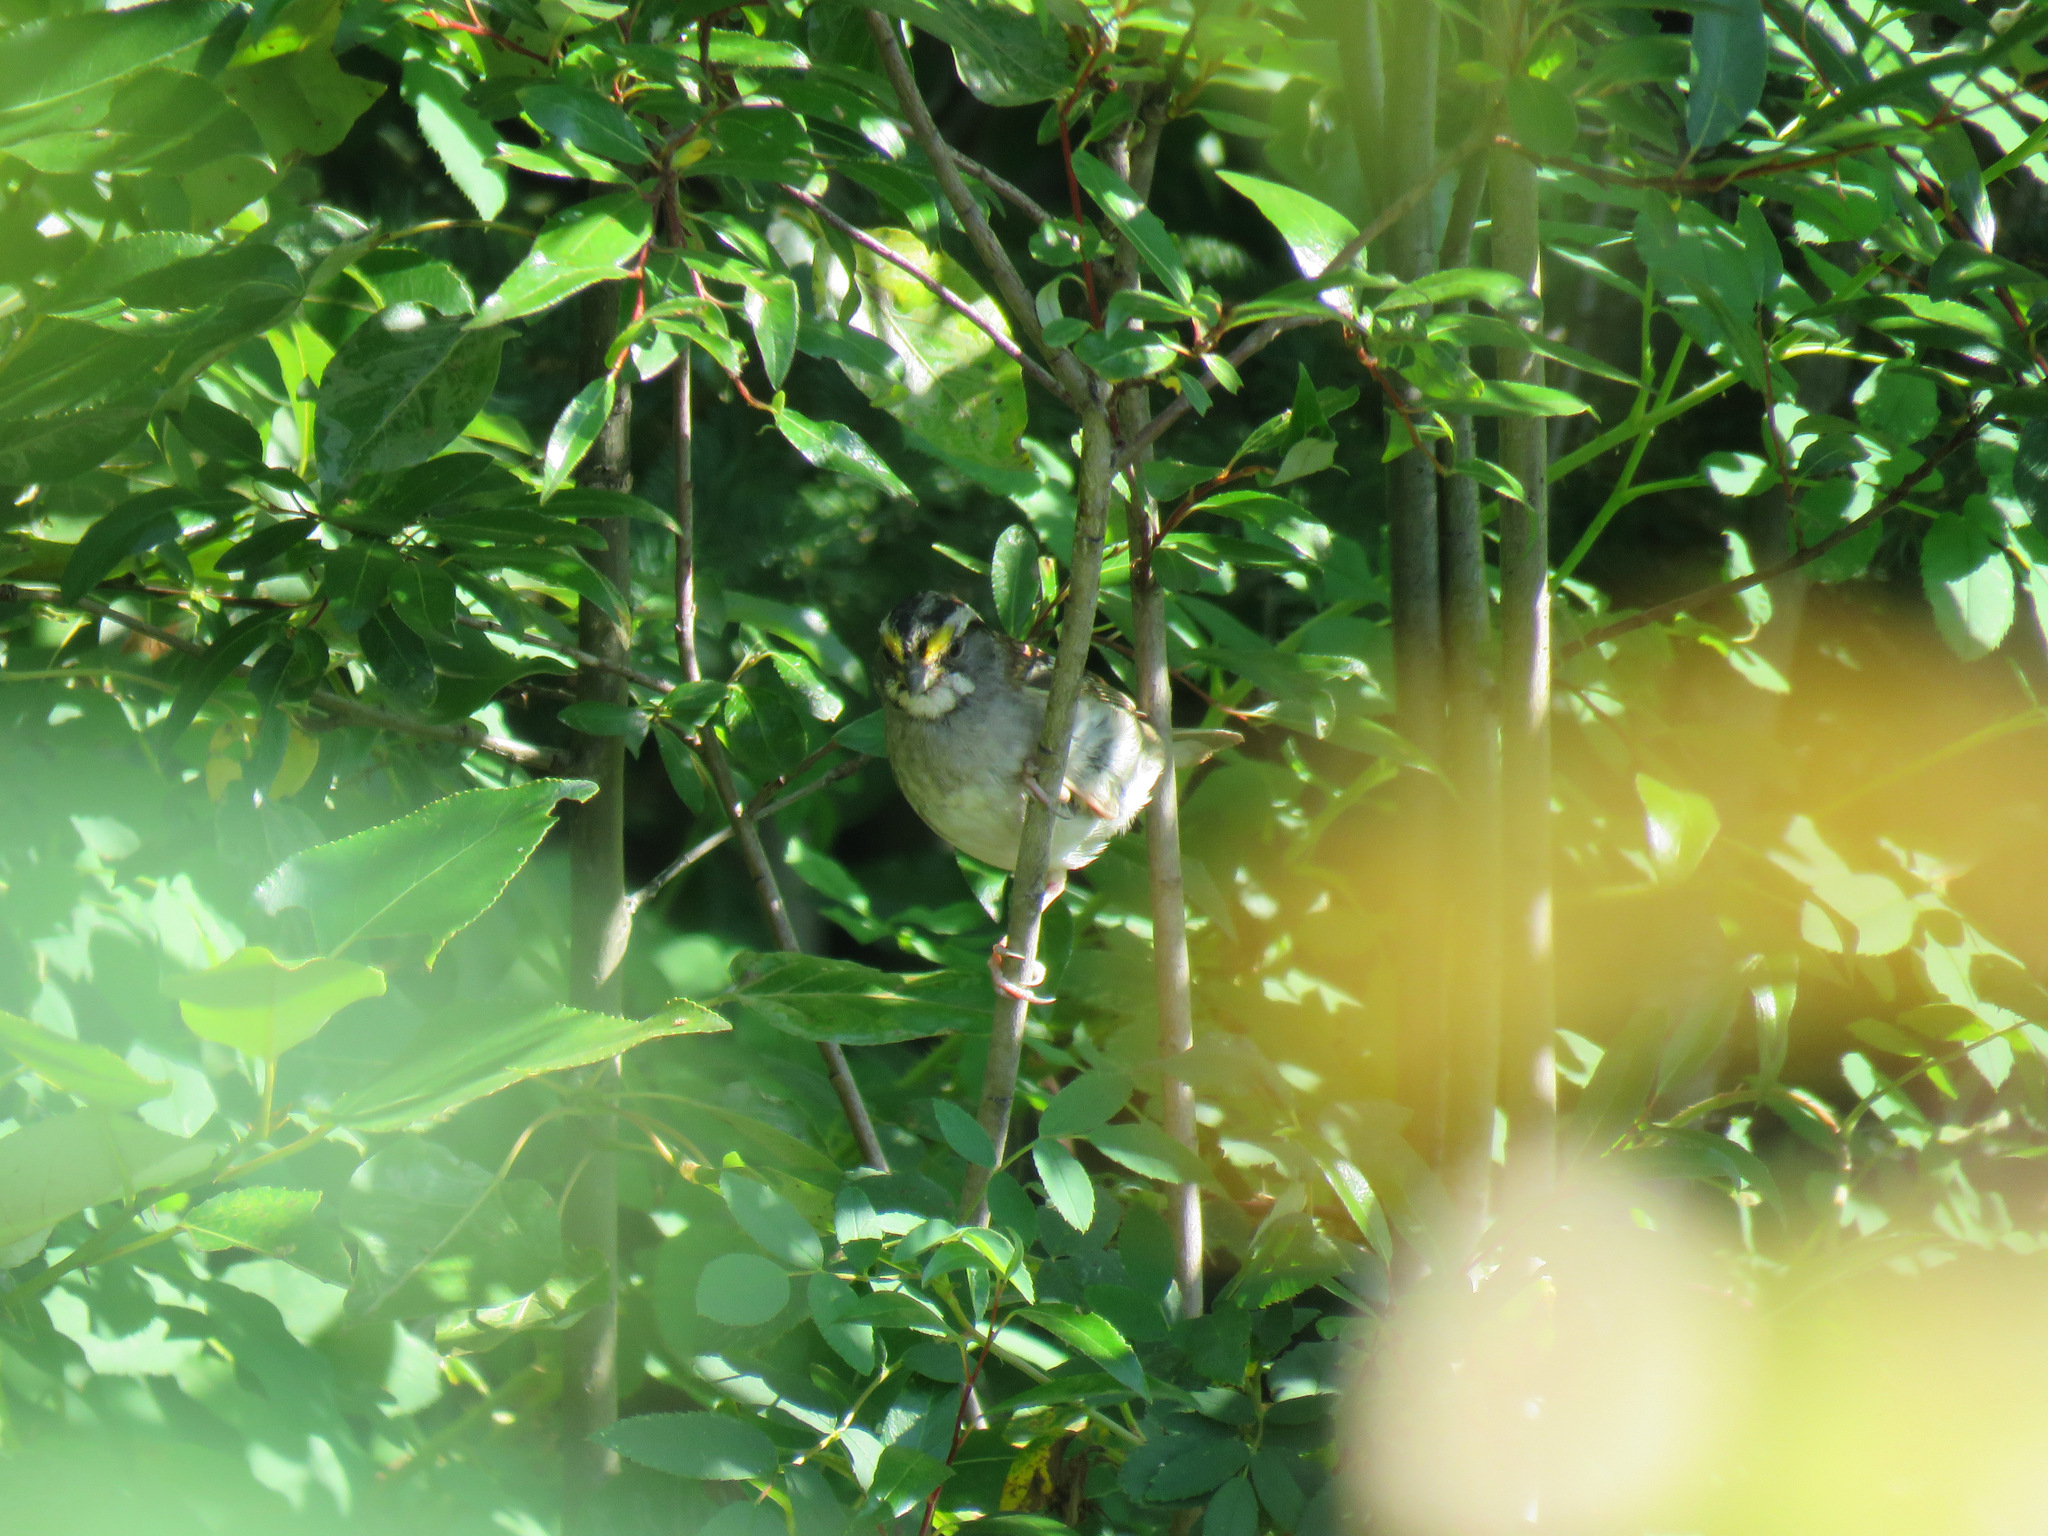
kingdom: Animalia
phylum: Chordata
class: Aves
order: Passeriformes
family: Passerellidae
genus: Zonotrichia
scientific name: Zonotrichia albicollis
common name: White-throated sparrow
